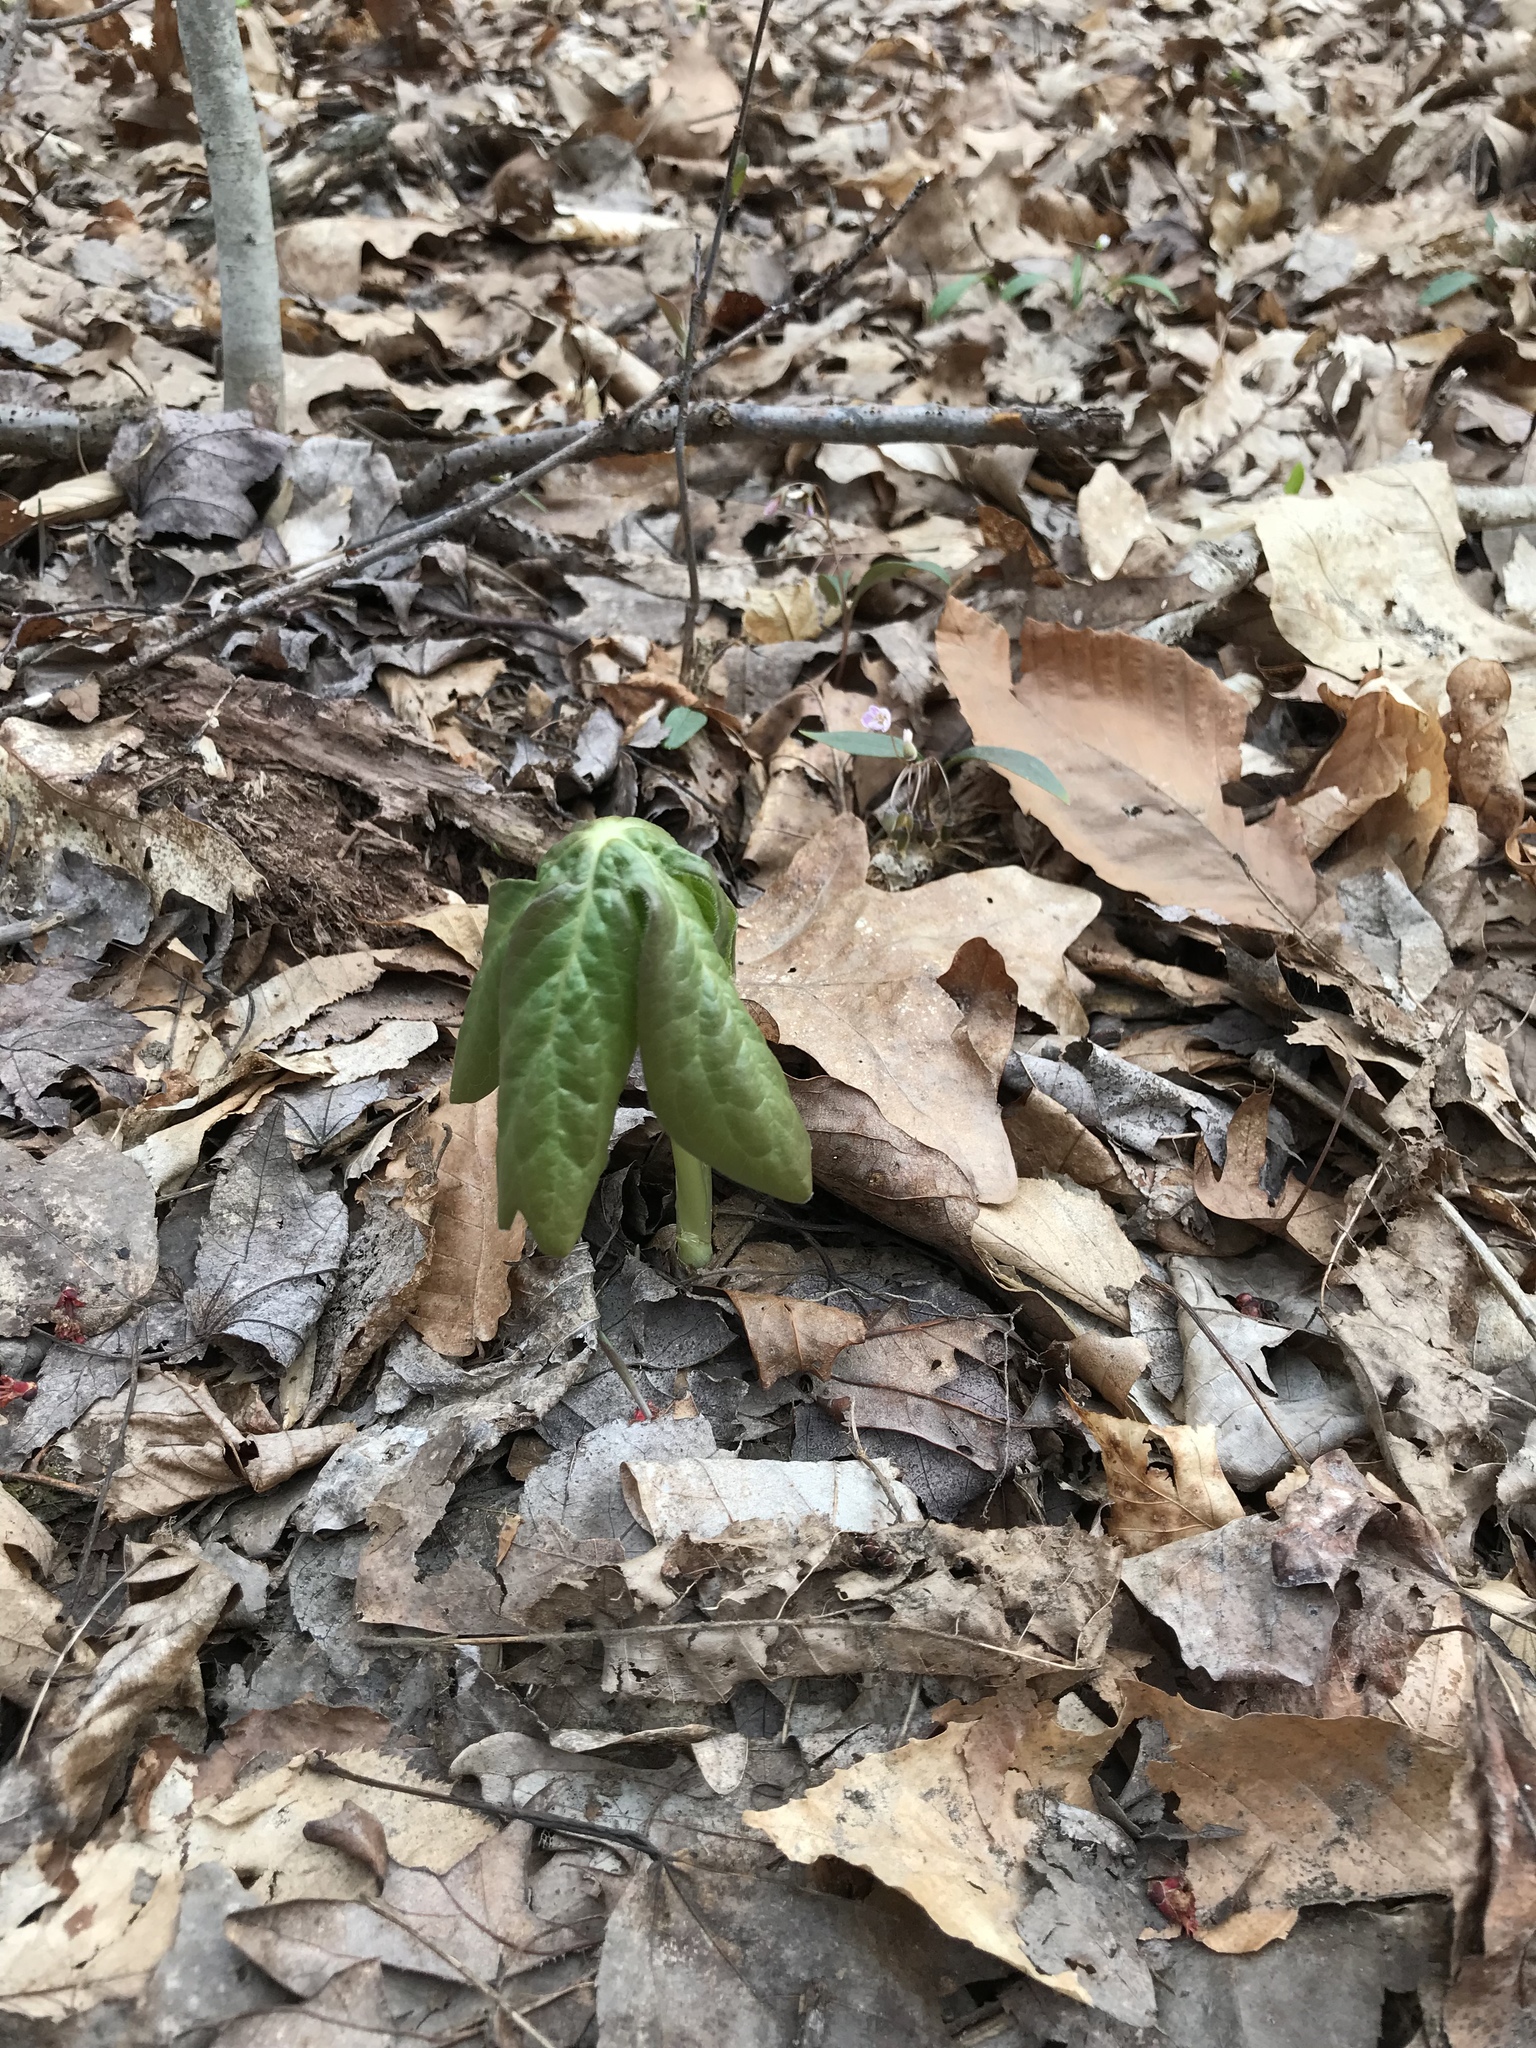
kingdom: Plantae
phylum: Tracheophyta
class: Magnoliopsida
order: Ranunculales
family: Berberidaceae
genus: Podophyllum
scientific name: Podophyllum peltatum
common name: Wild mandrake
